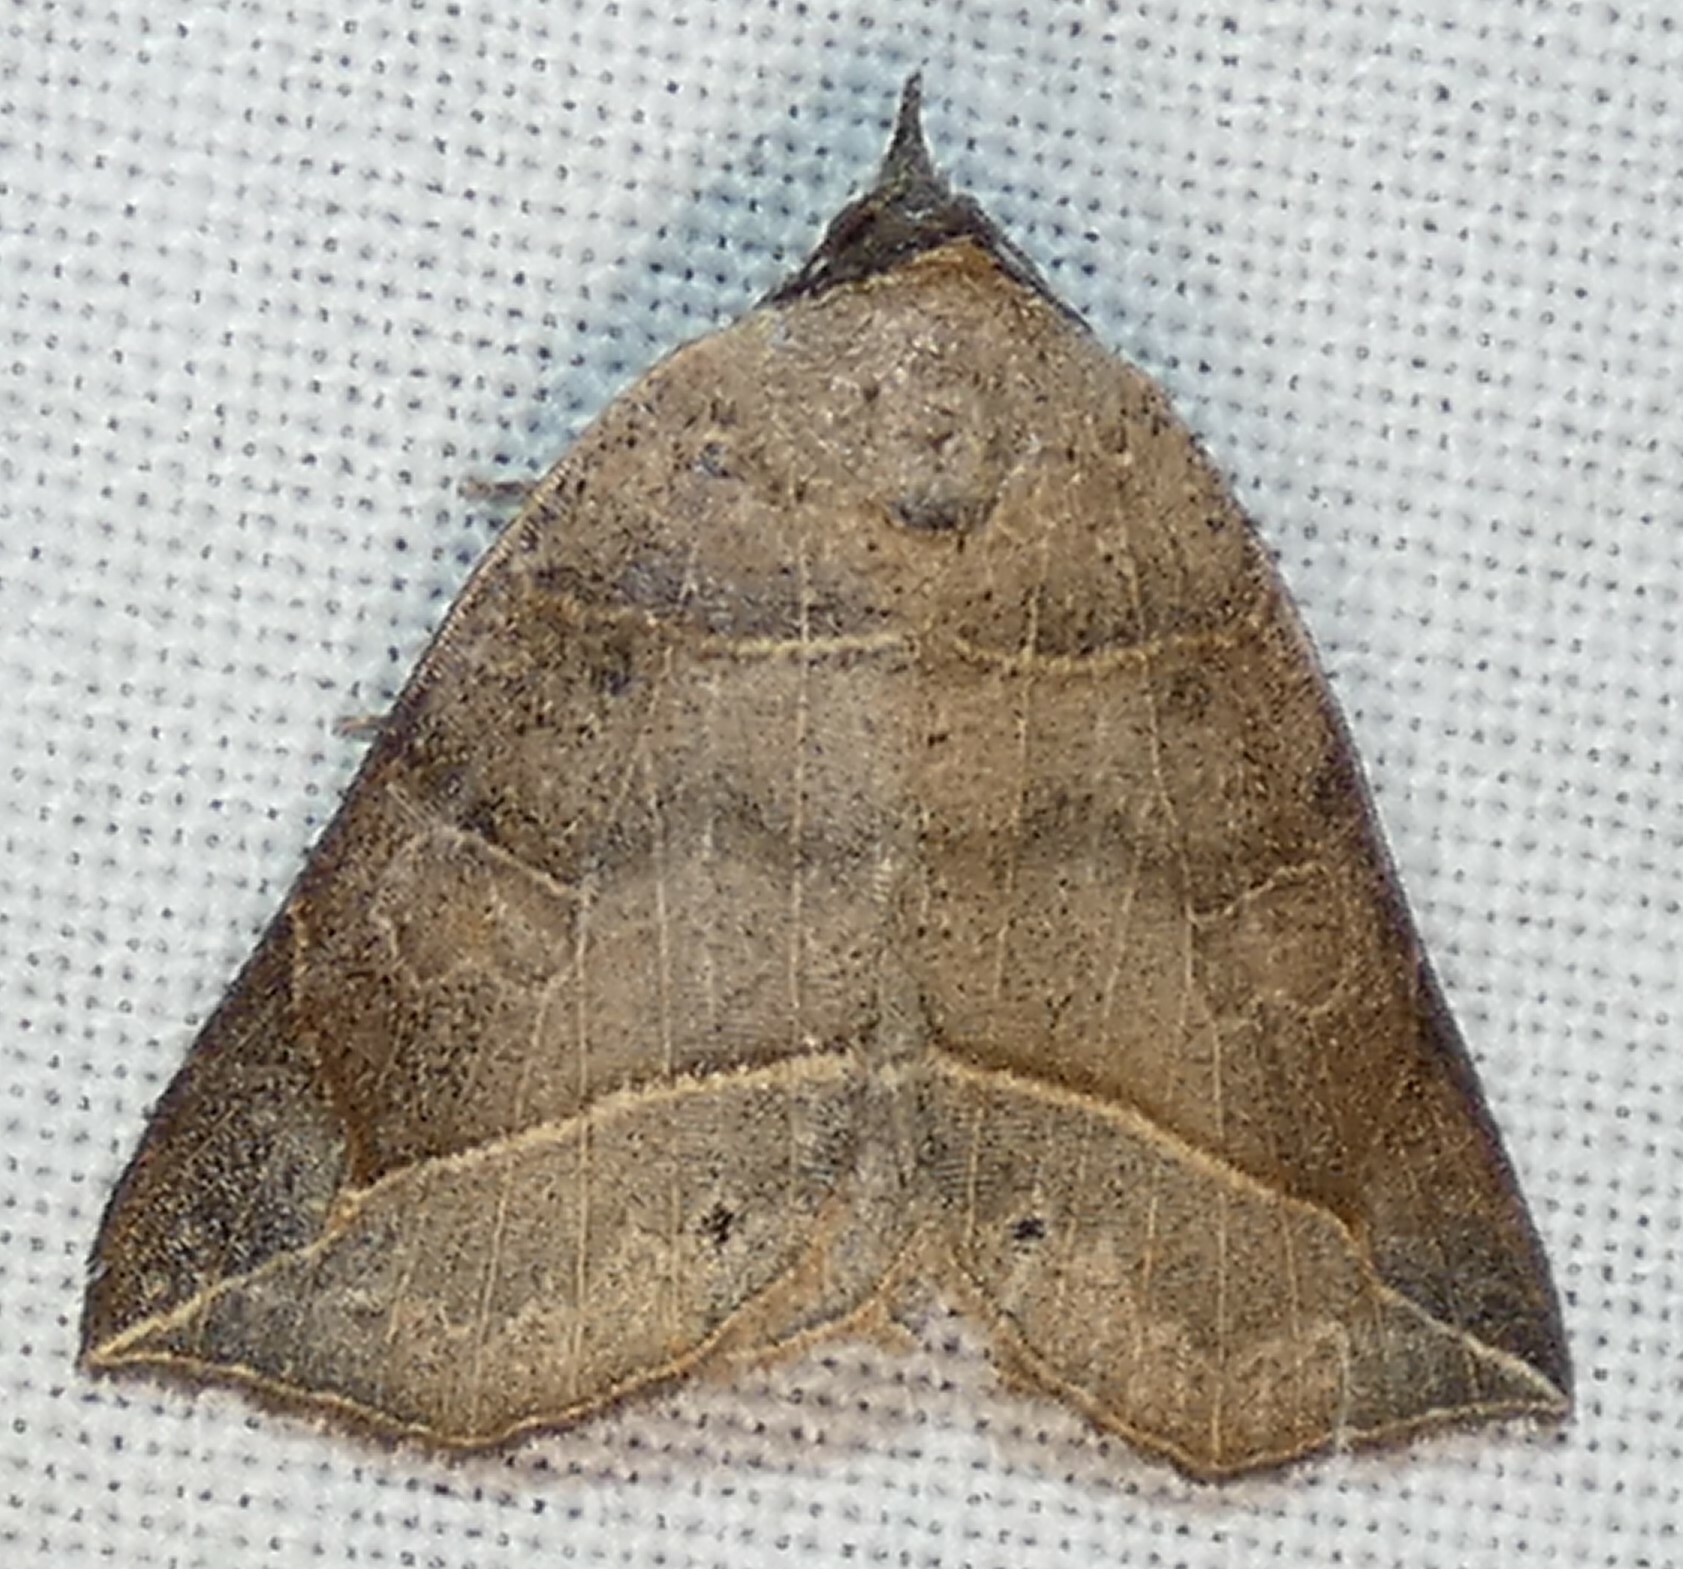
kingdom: Animalia
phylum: Arthropoda
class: Insecta
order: Lepidoptera
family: Erebidae
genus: Isogona
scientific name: Isogona tenuis
